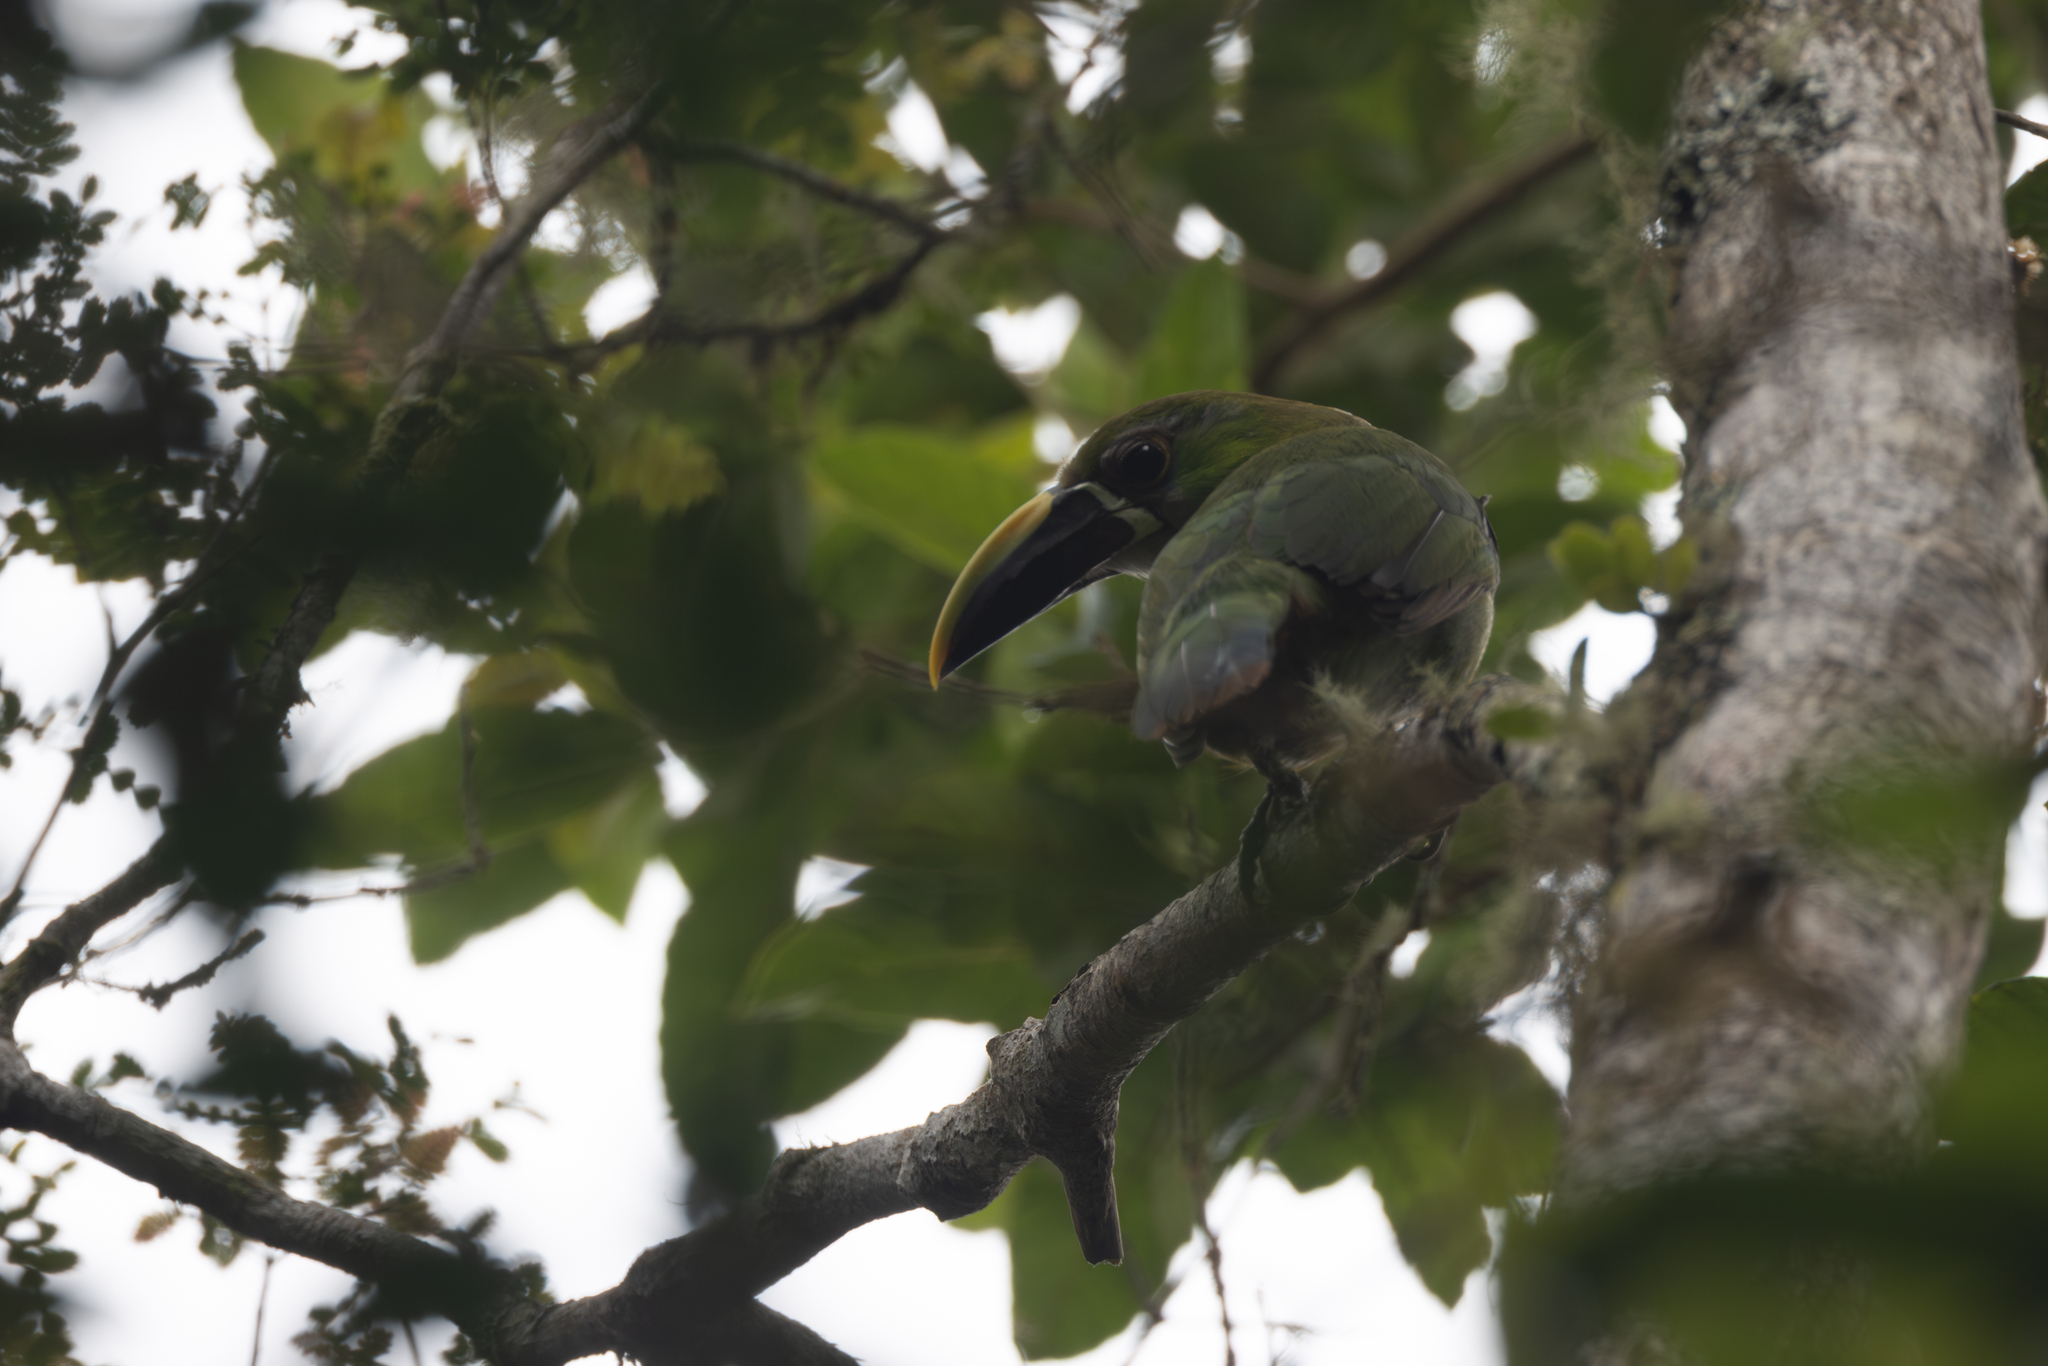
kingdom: Animalia
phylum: Chordata
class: Aves
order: Piciformes
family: Ramphastidae
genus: Aulacorhynchus
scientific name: Aulacorhynchus albivitta
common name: White-throated toucanet
